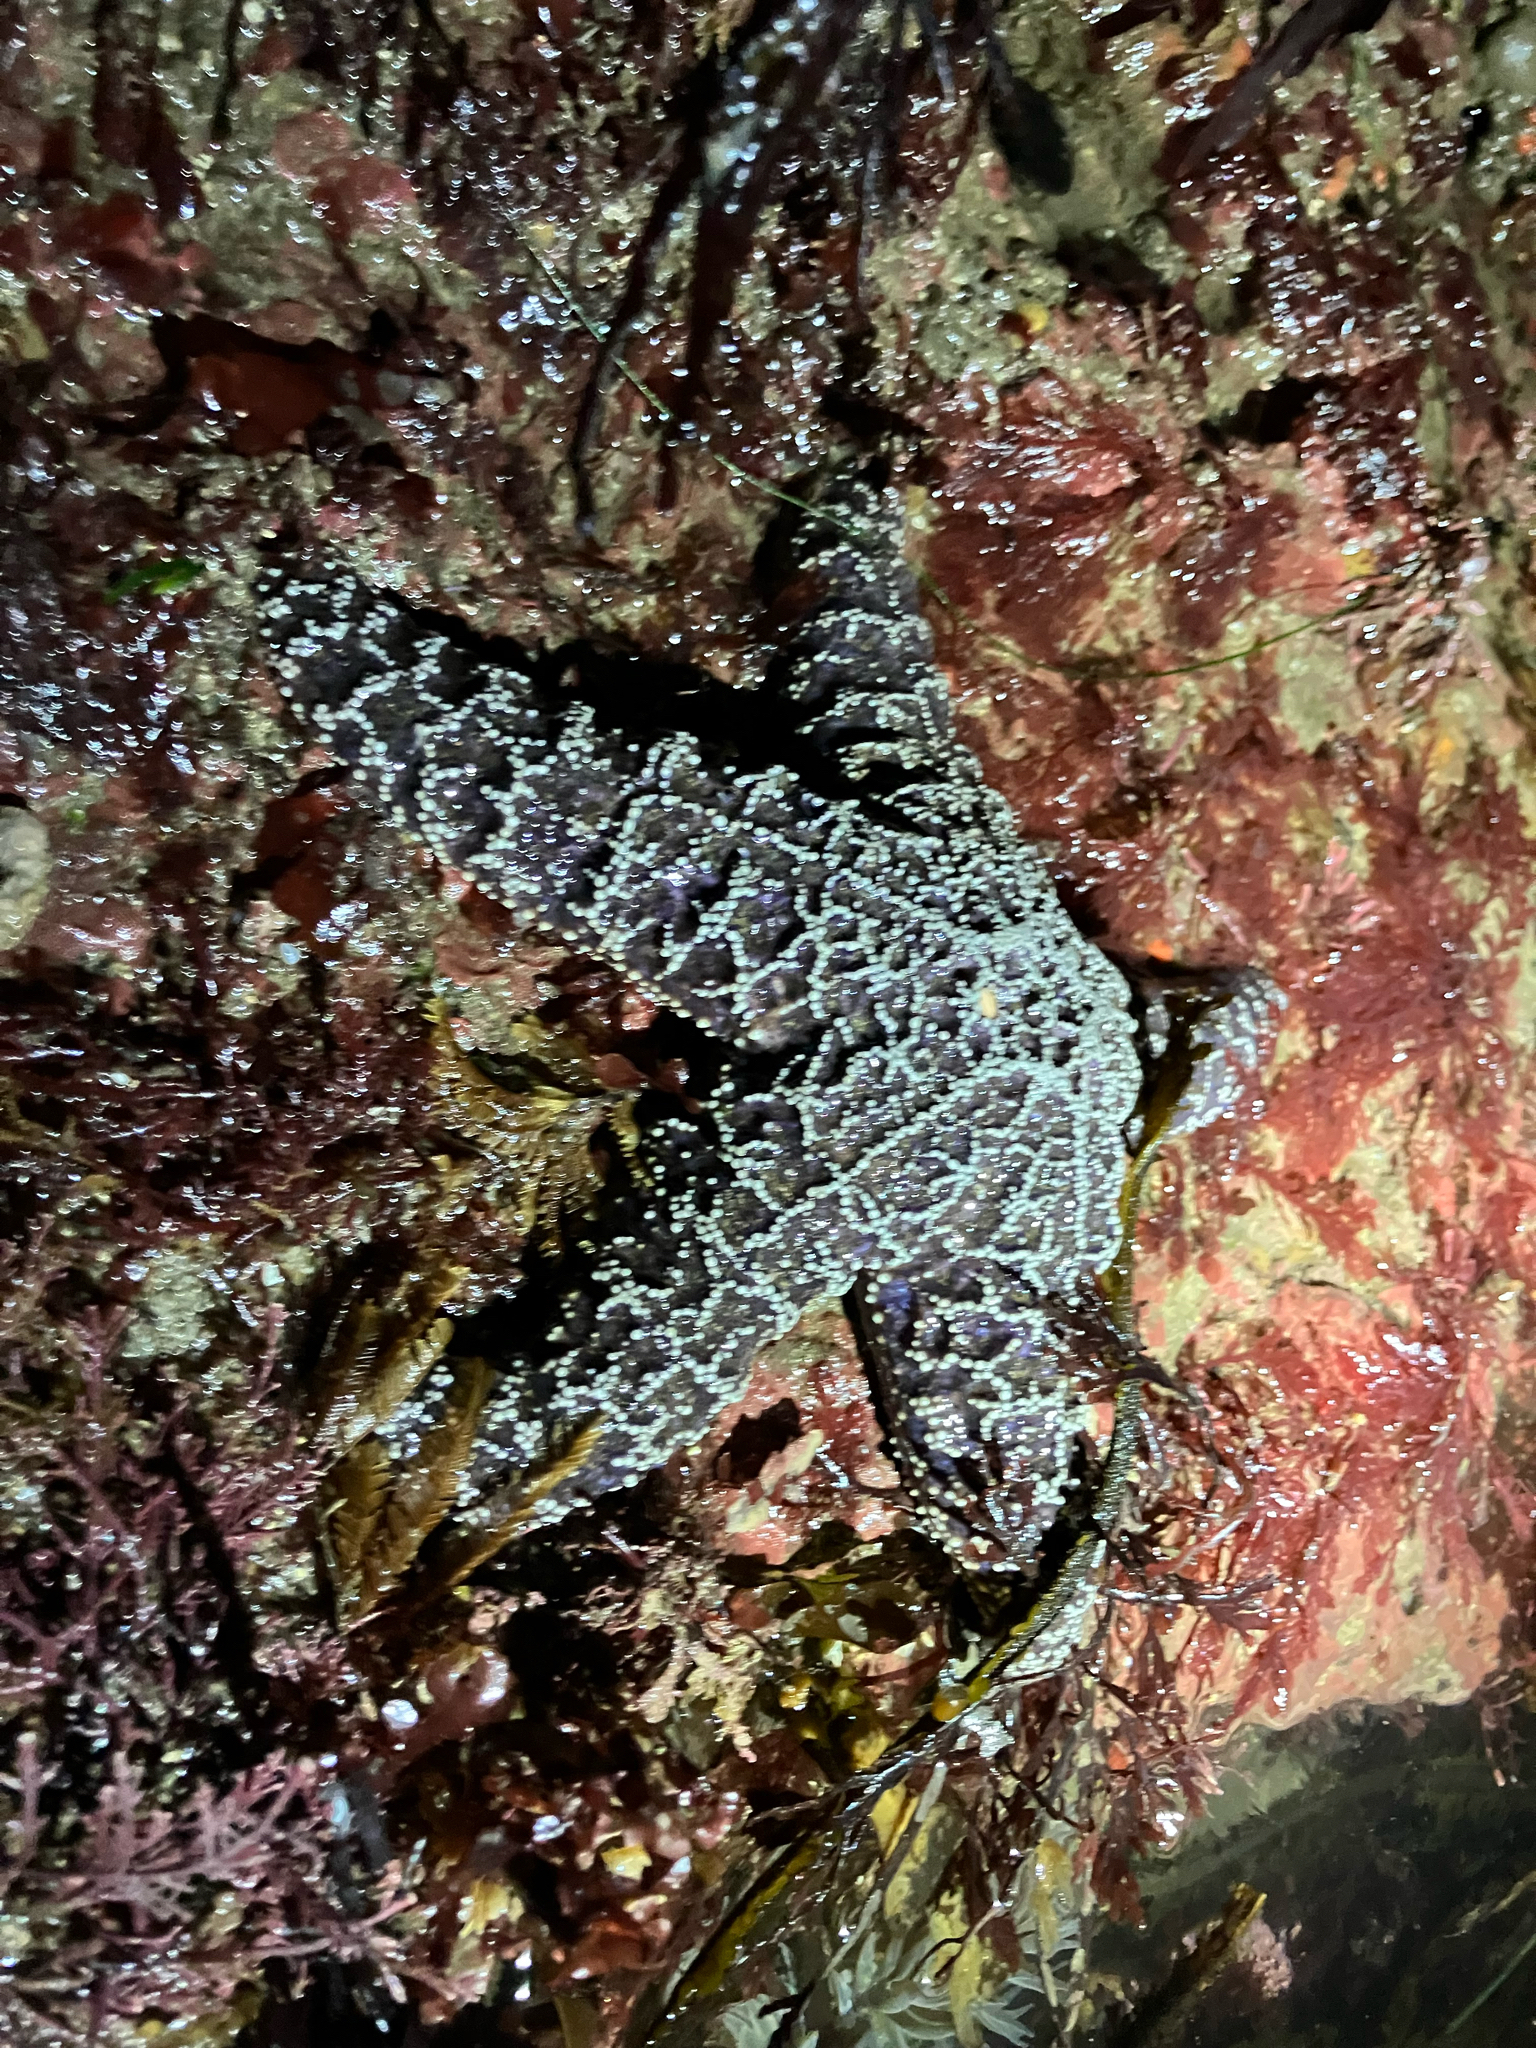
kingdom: Animalia
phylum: Echinodermata
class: Asteroidea
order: Forcipulatida
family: Asteriidae
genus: Pisaster
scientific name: Pisaster ochraceus
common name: Ochre stars
